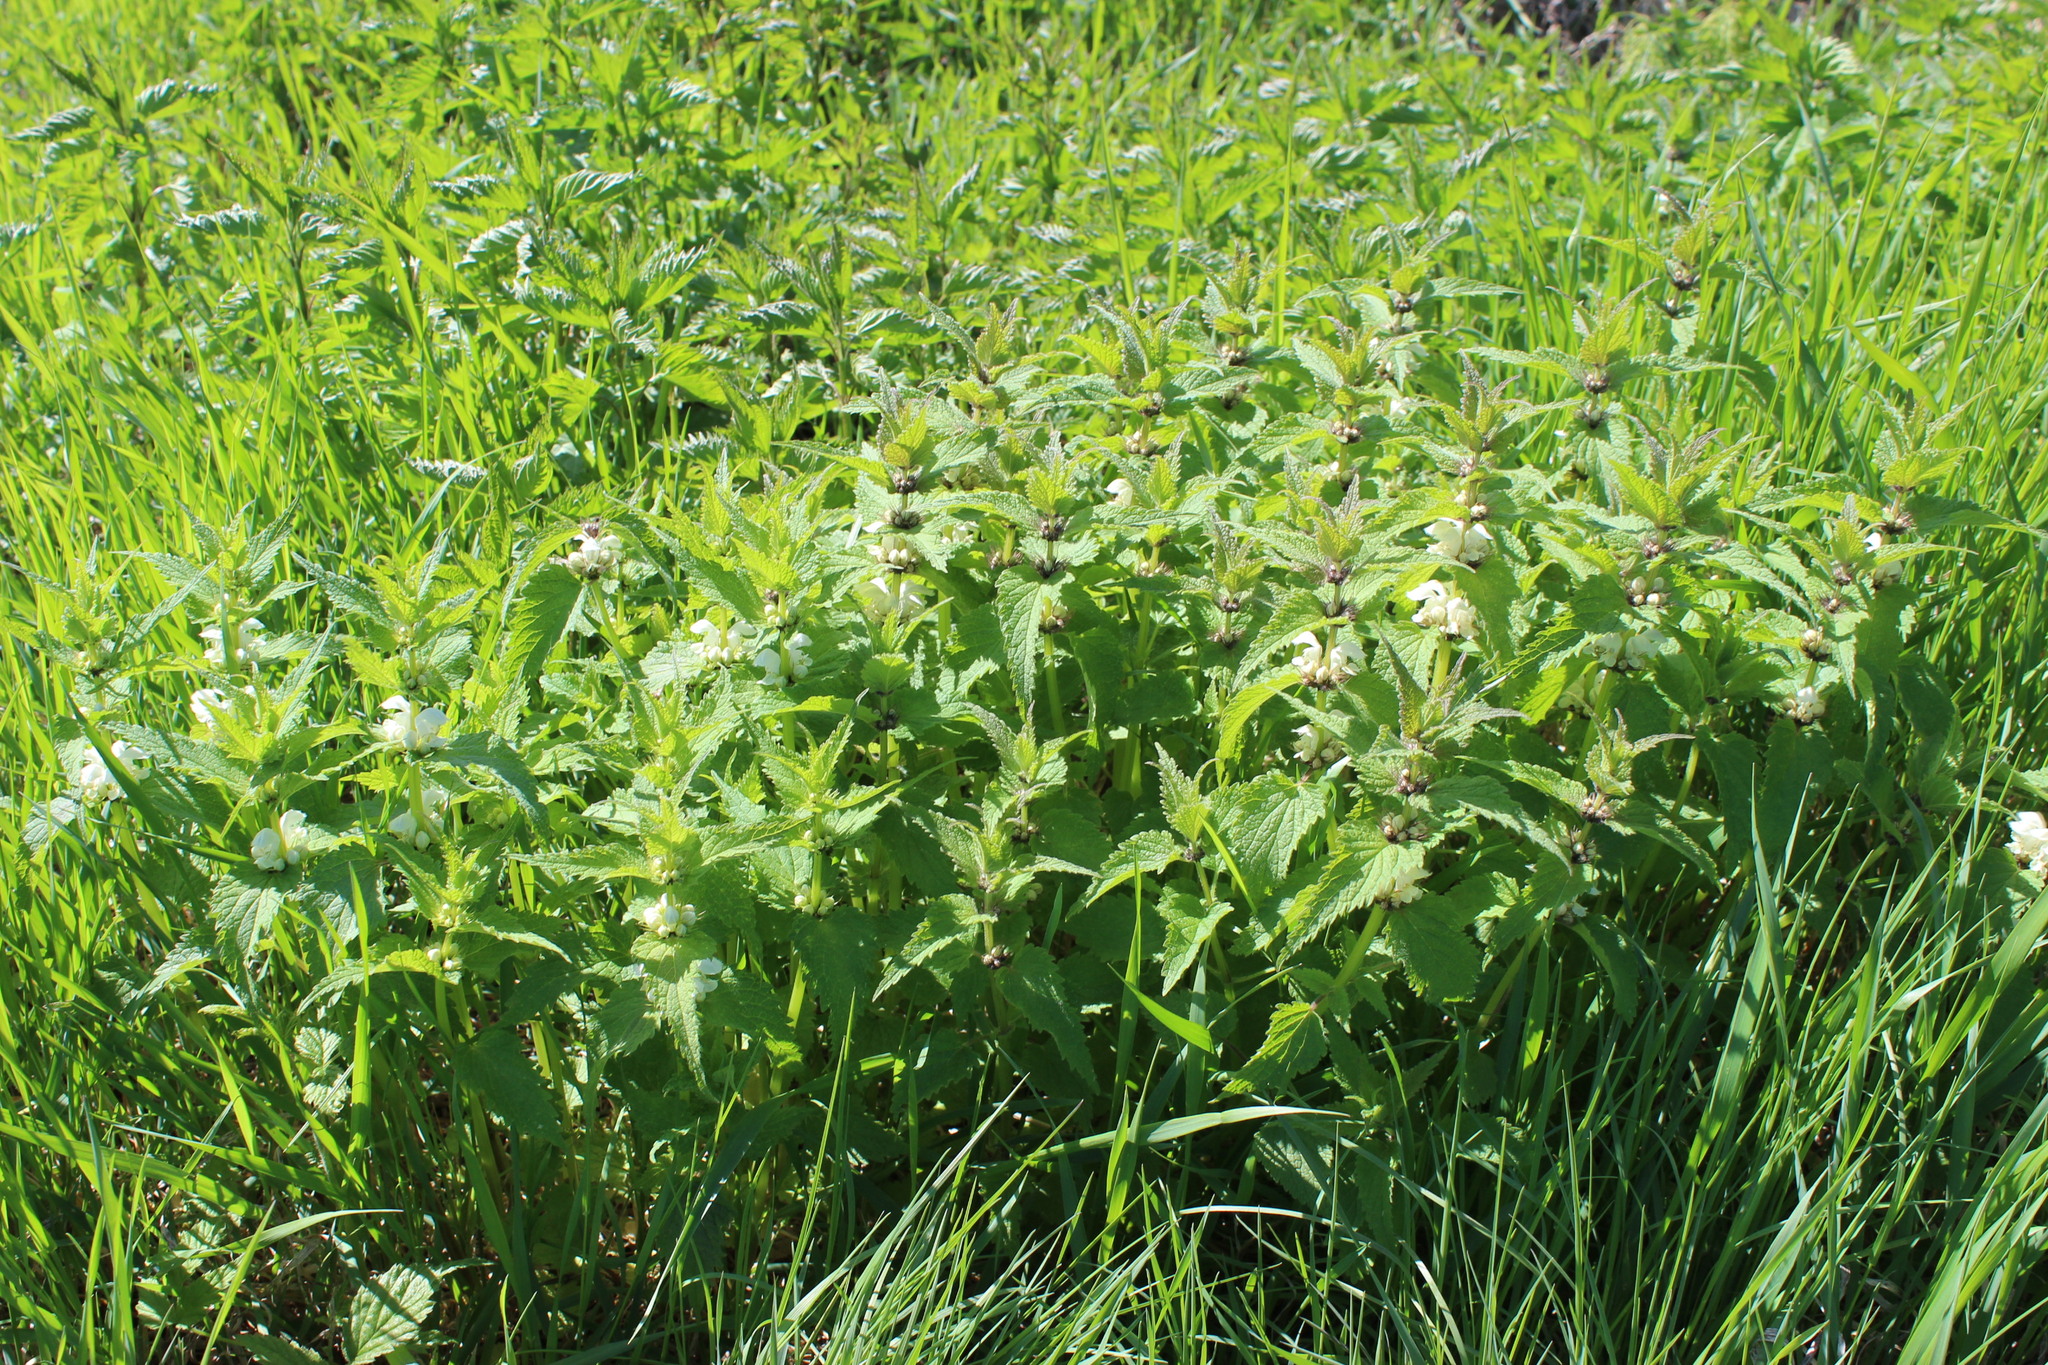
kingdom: Plantae
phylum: Tracheophyta
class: Magnoliopsida
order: Lamiales
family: Lamiaceae
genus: Lamium
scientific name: Lamium album
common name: White dead-nettle
